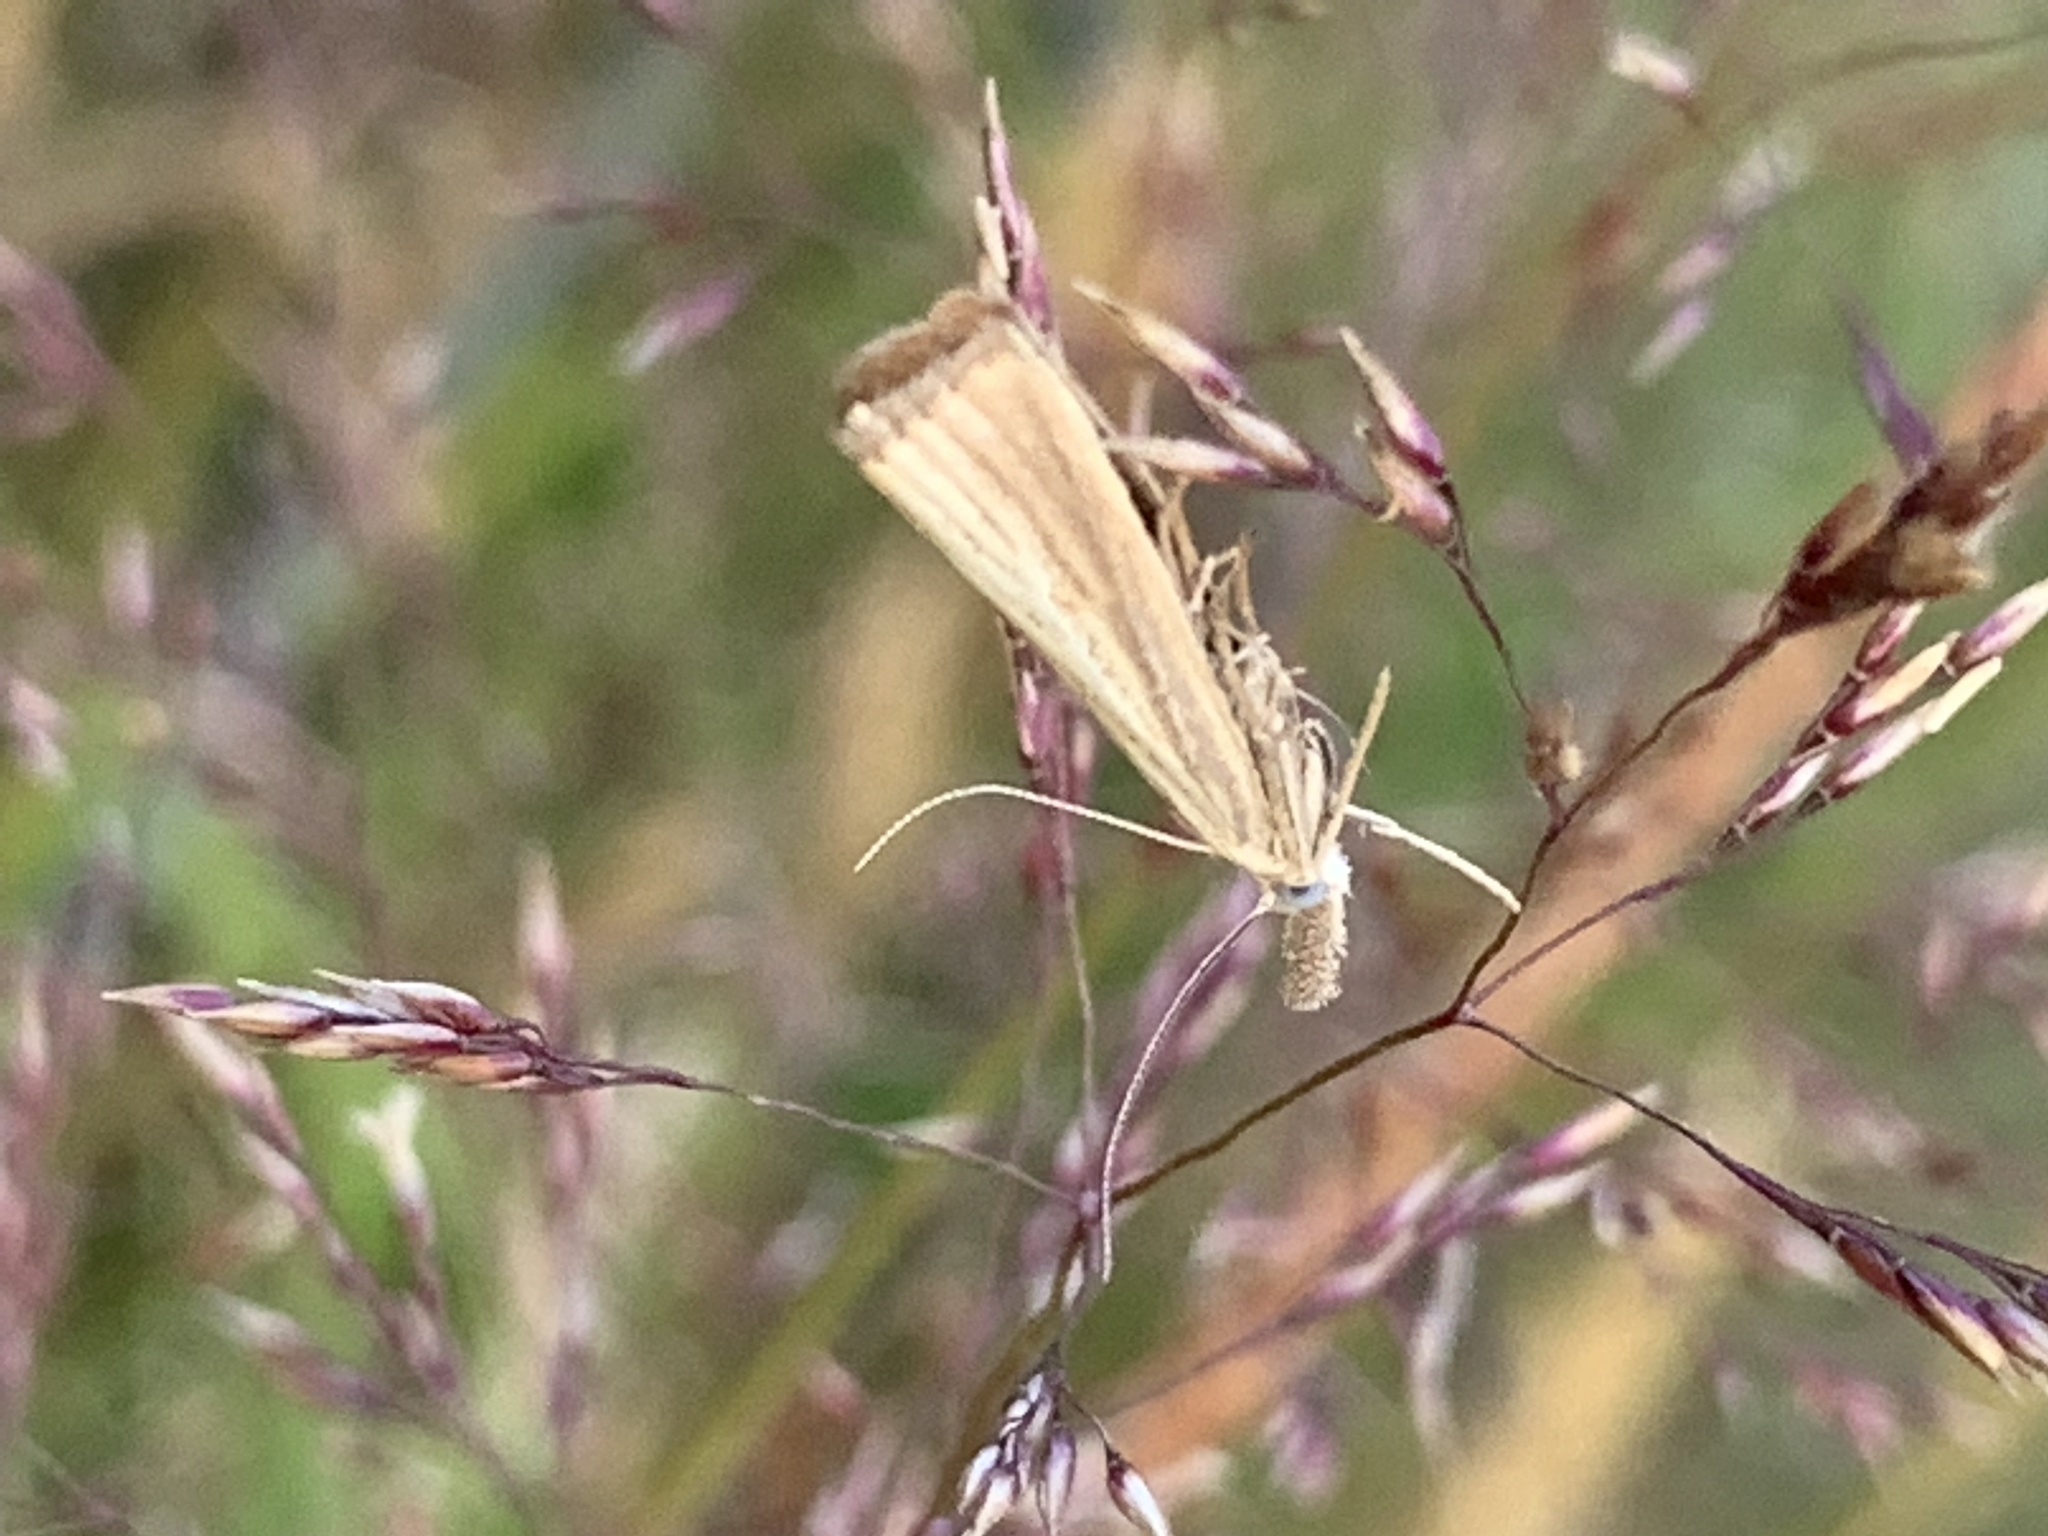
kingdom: Animalia
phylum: Arthropoda
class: Insecta
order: Lepidoptera
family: Crambidae
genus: Agriphila
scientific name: Agriphila straminella
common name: Straw grass-veneer
